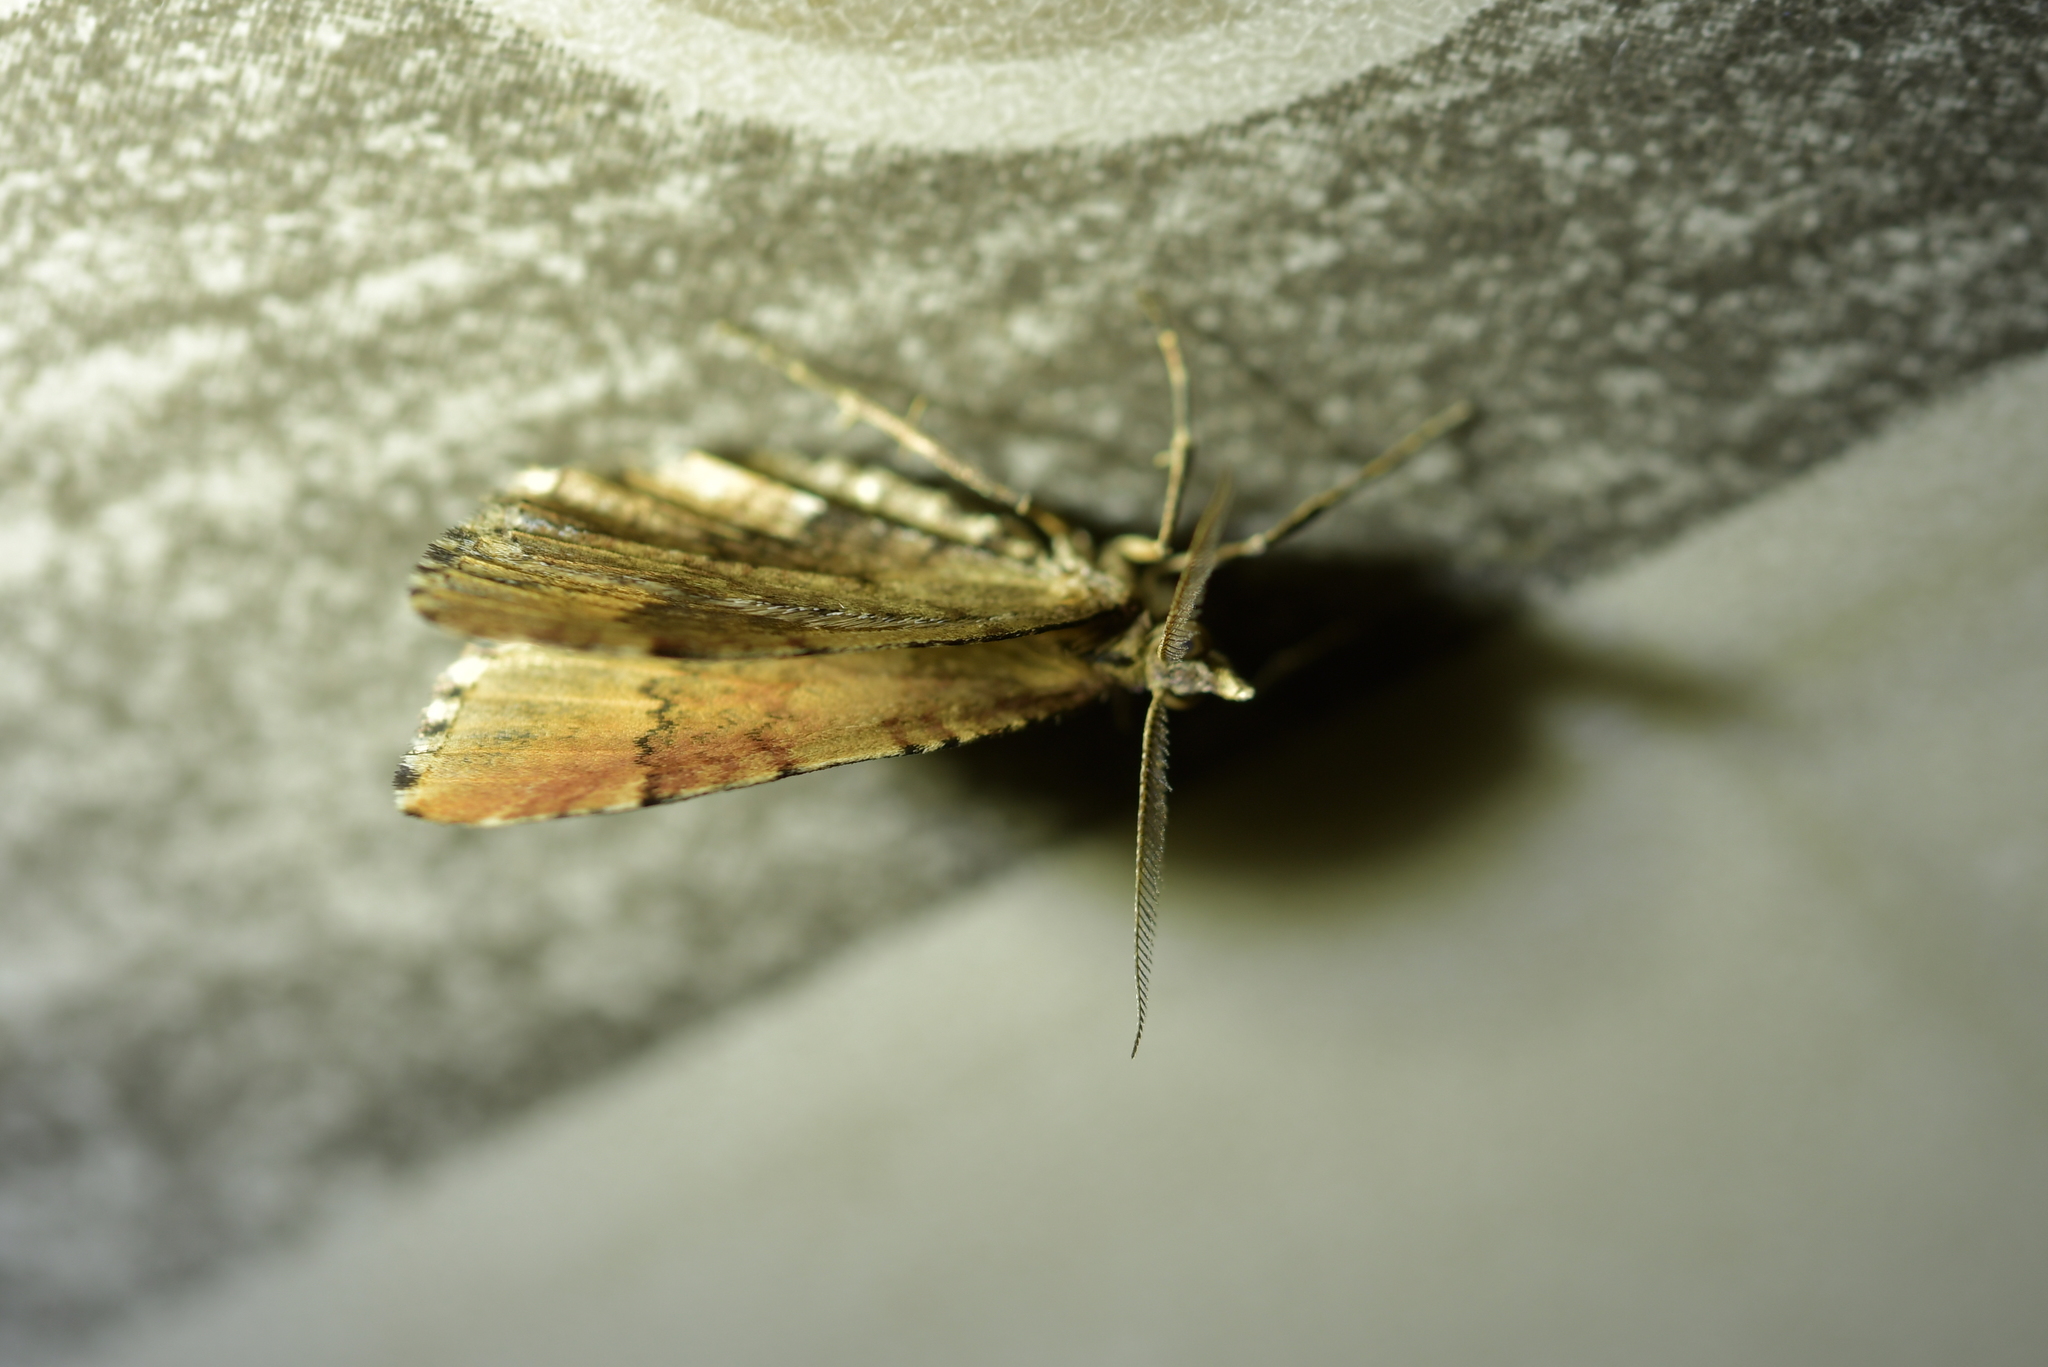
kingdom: Animalia
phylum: Arthropoda
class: Insecta
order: Lepidoptera
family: Geometridae
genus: Asaphodes
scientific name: Asaphodes aegrota
